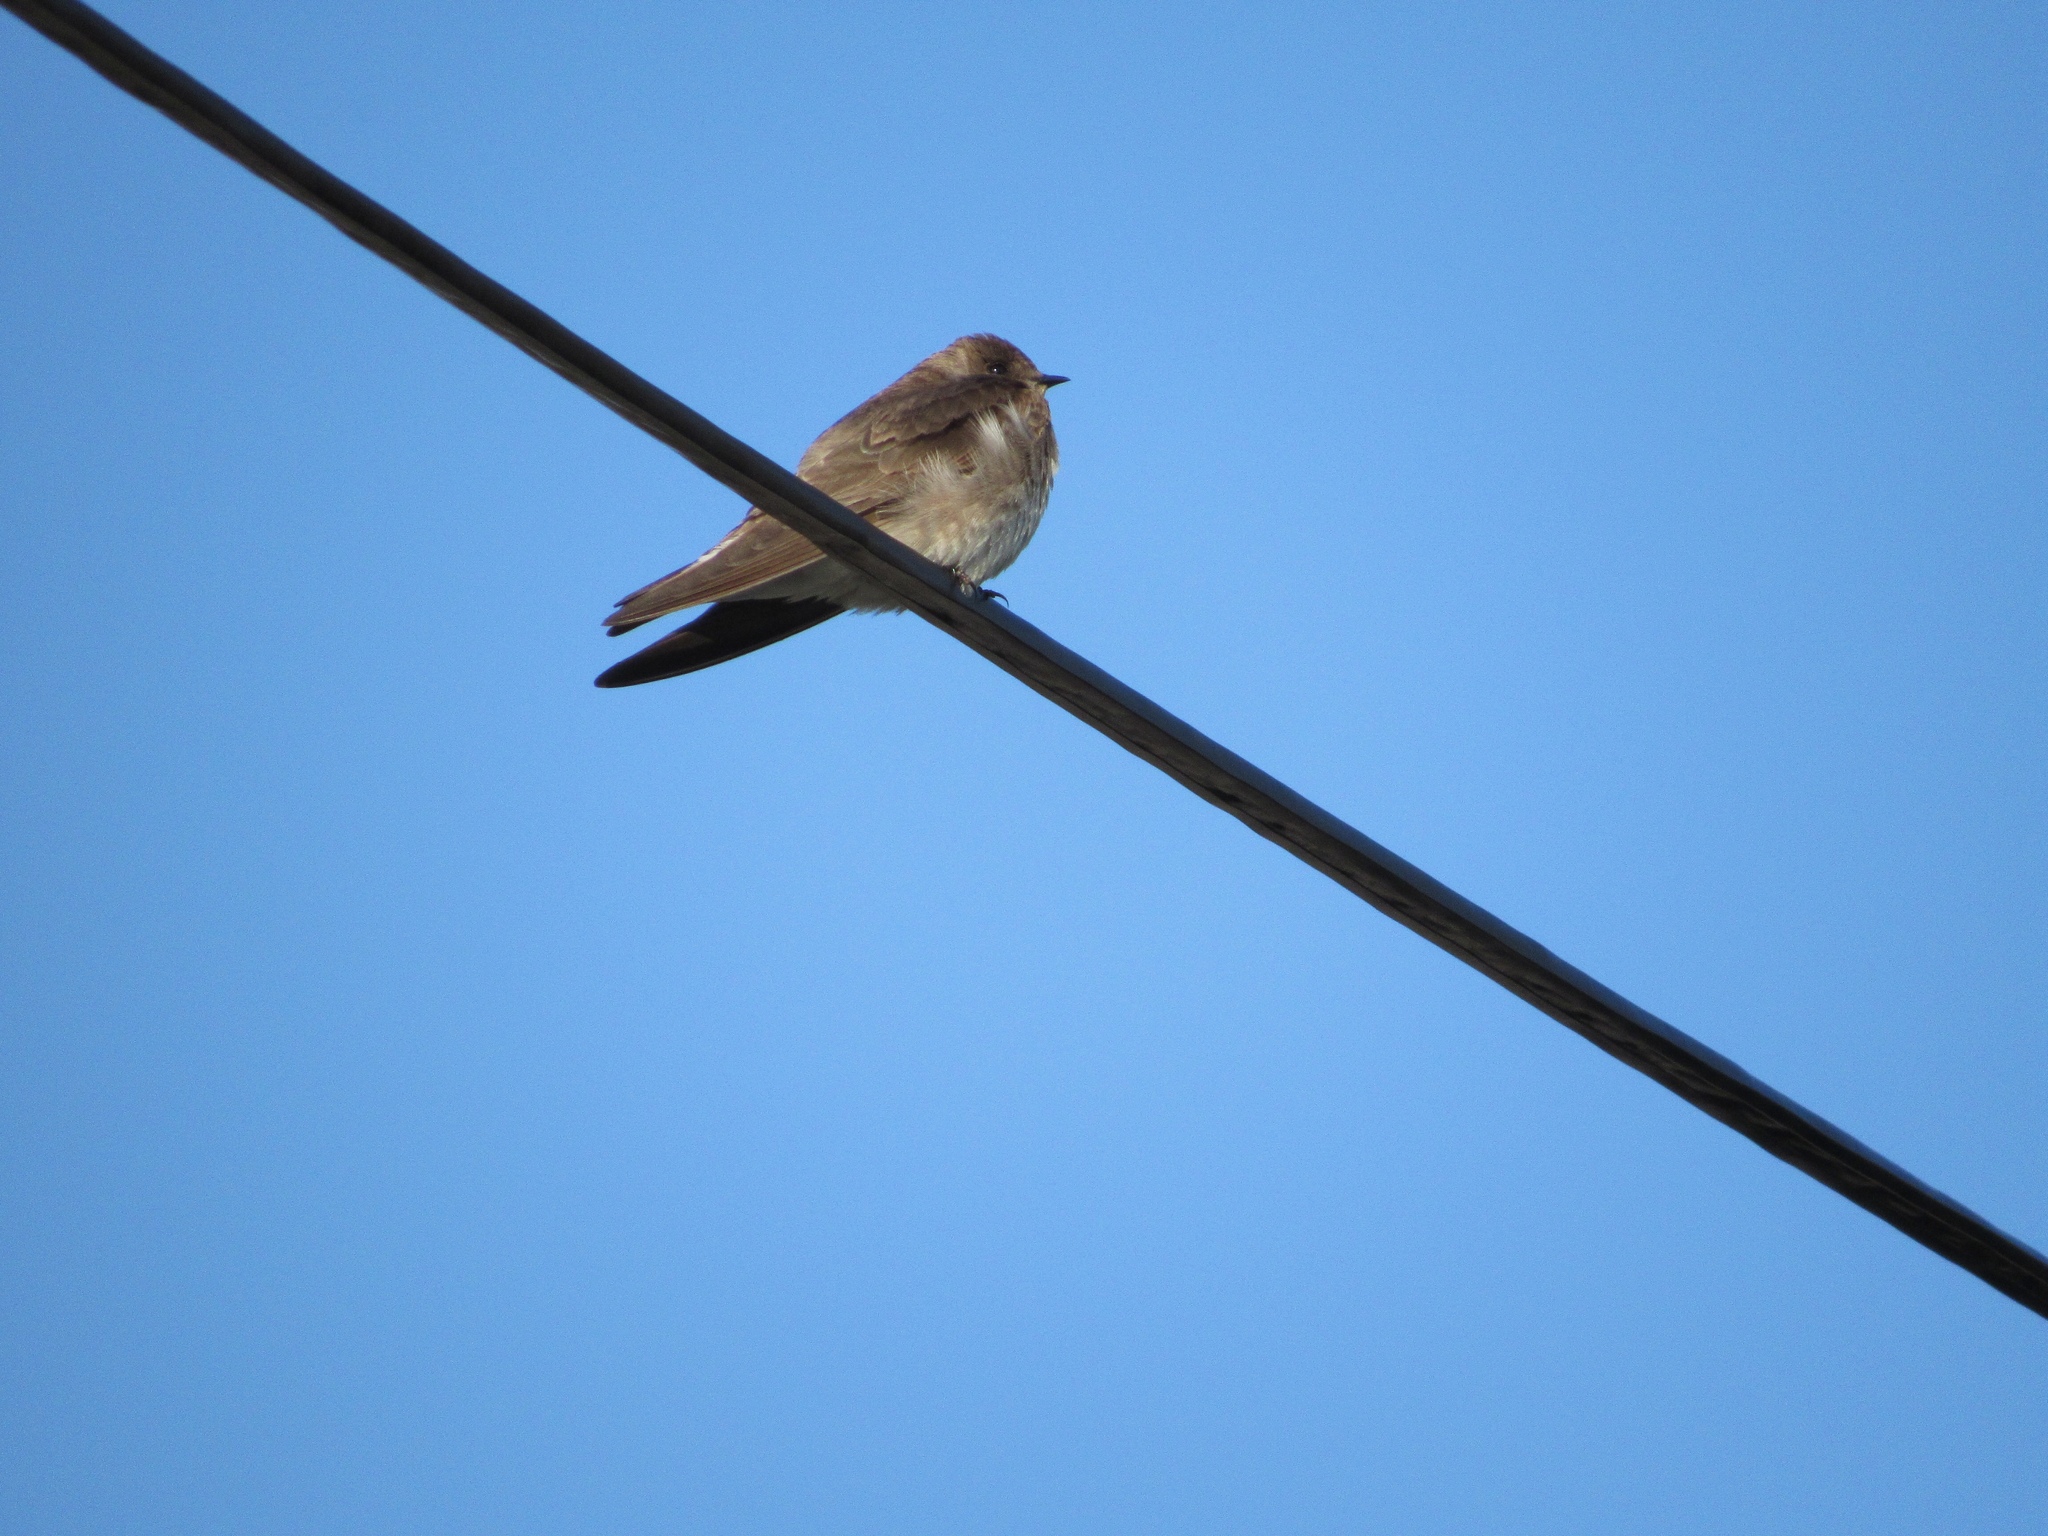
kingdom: Animalia
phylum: Chordata
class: Aves
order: Passeriformes
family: Hirundinidae
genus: Stelgidopteryx
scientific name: Stelgidopteryx serripennis
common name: Northern rough-winged swallow
